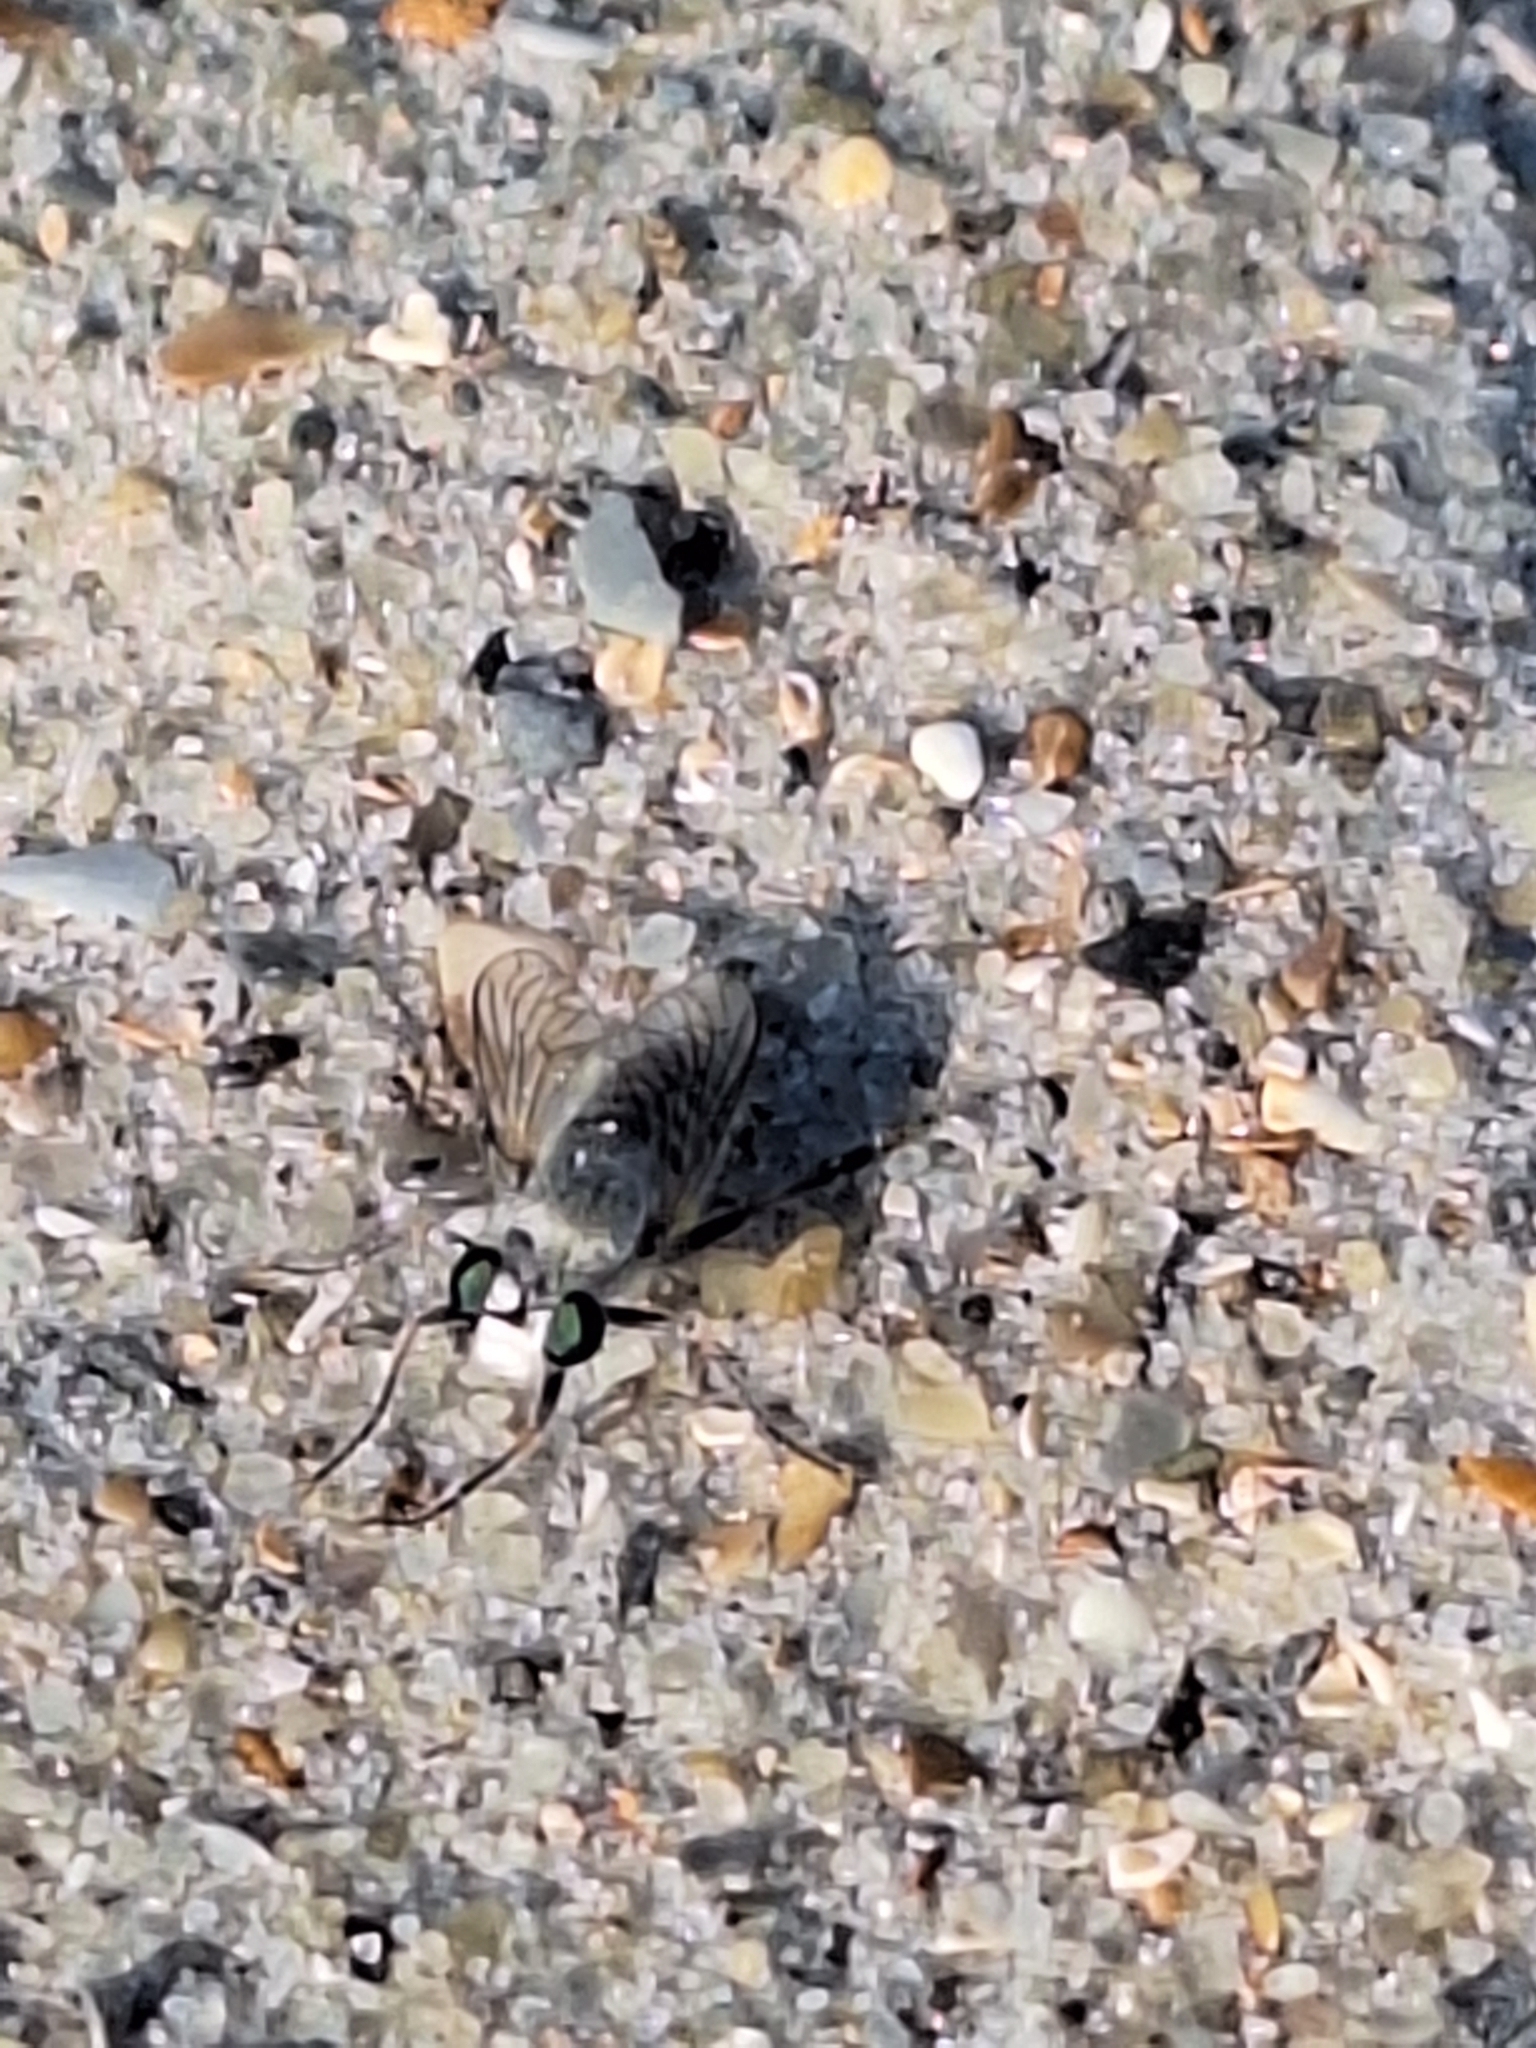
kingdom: Animalia
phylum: Arthropoda
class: Insecta
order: Diptera
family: Asilidae
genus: Laphystia
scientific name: Laphystia litoralis
